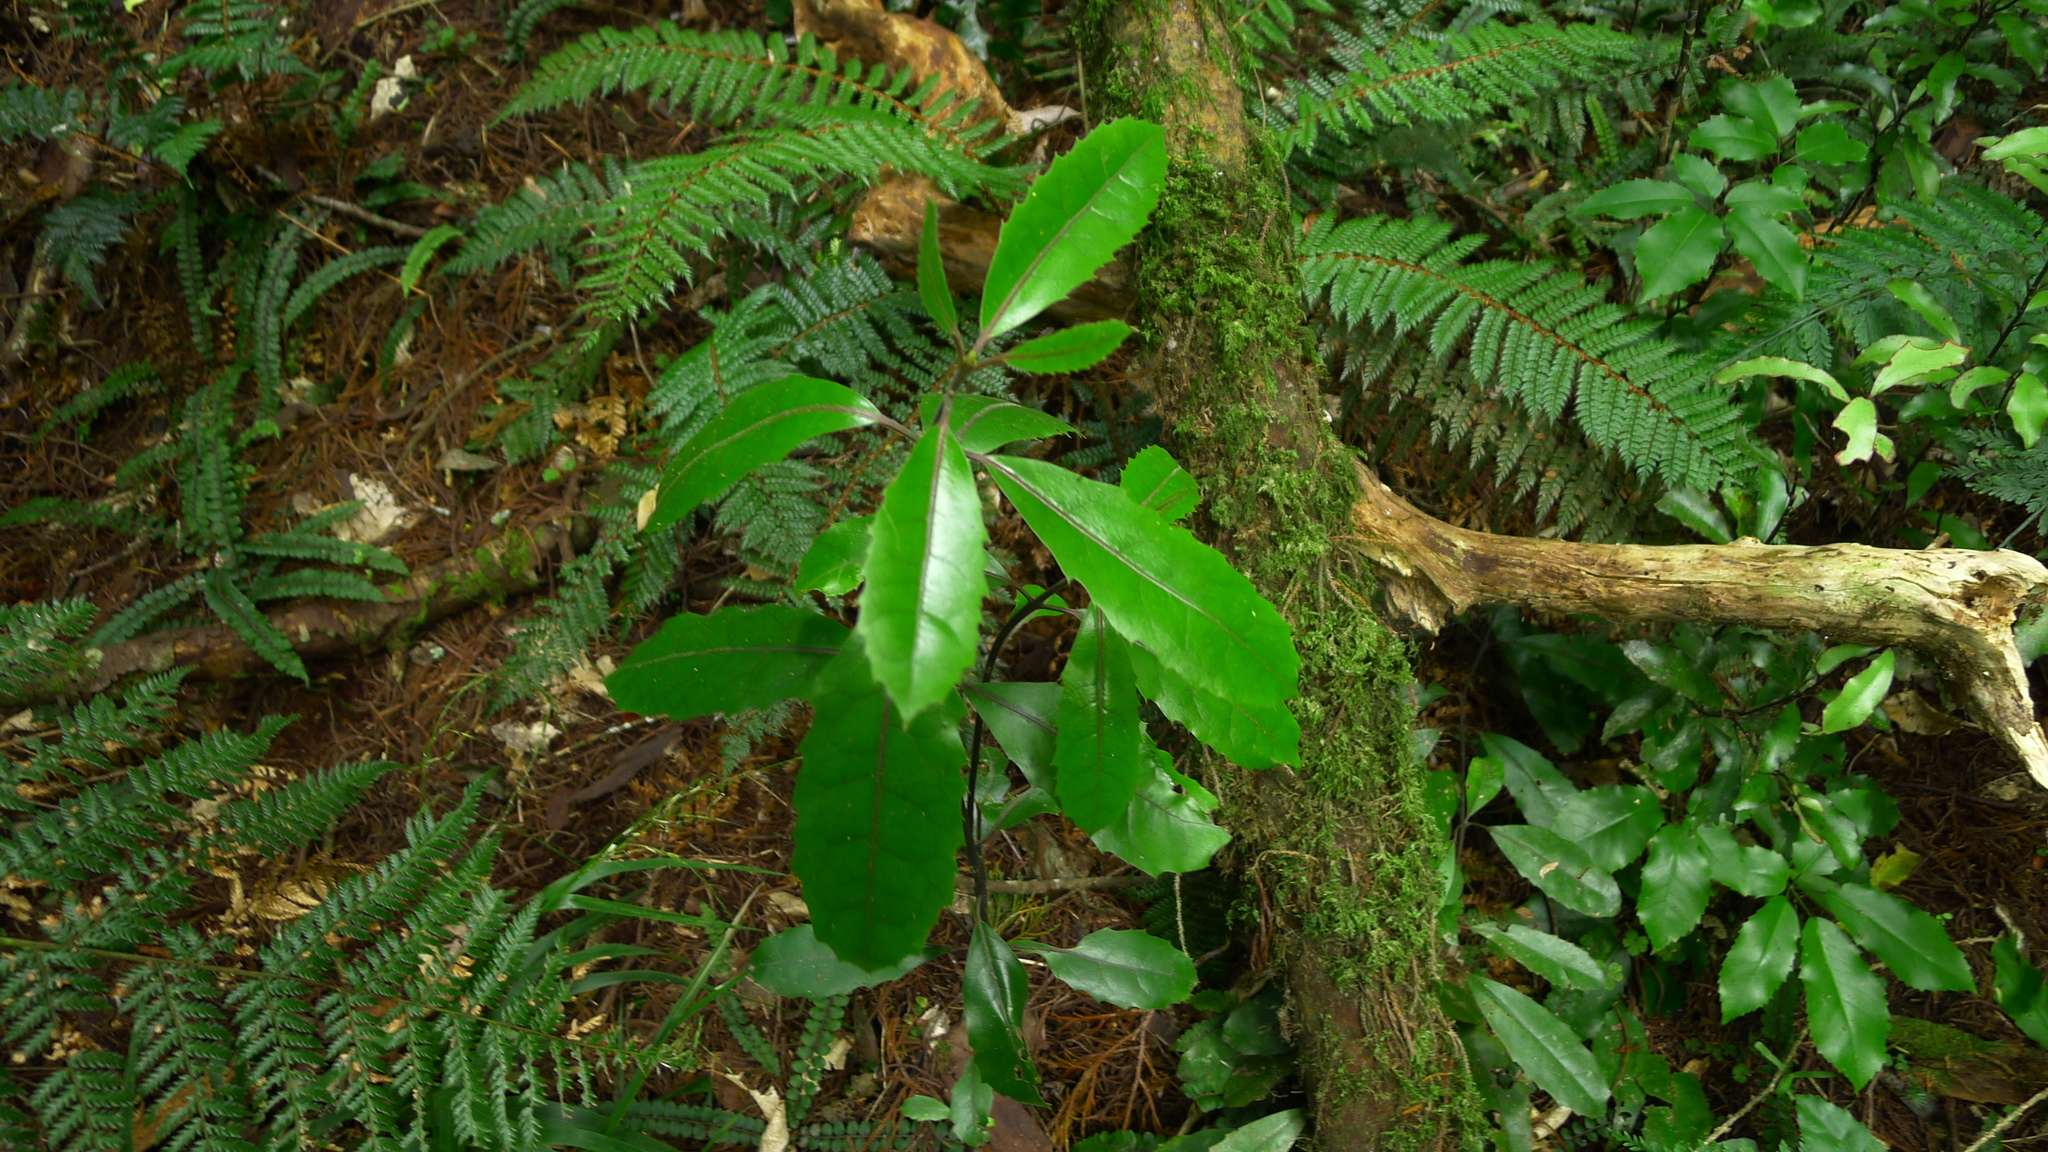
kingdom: Plantae
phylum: Tracheophyta
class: Magnoliopsida
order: Laurales
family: Monimiaceae
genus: Hedycarya
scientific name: Hedycarya arborea
